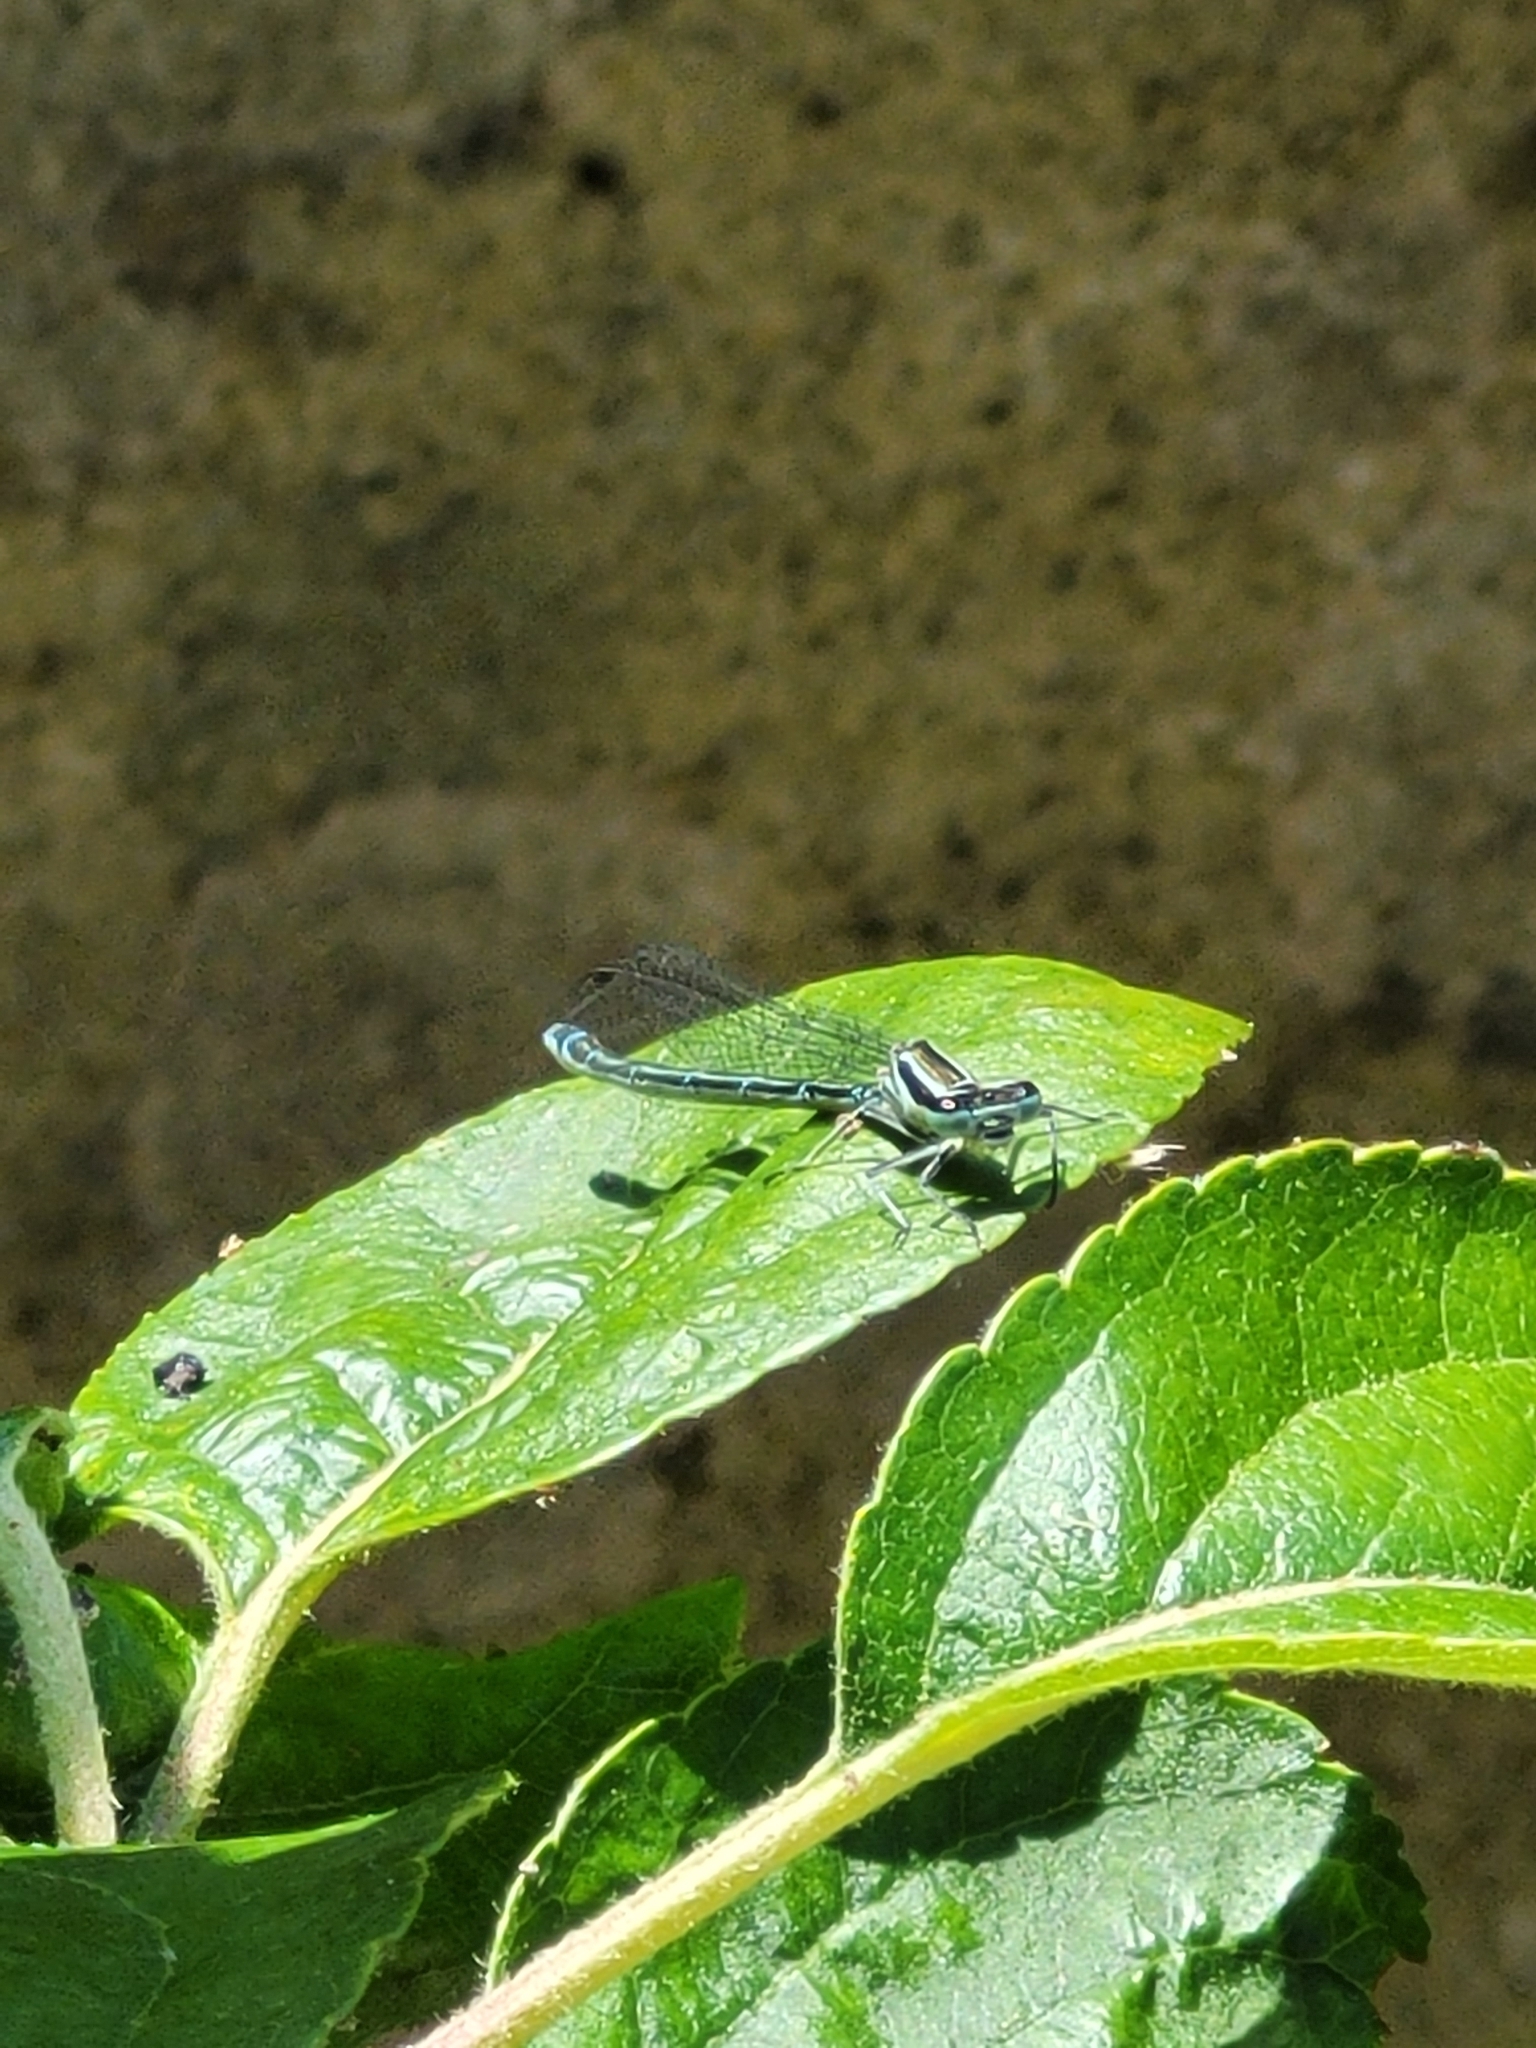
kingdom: Animalia
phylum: Arthropoda
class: Insecta
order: Odonata
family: Coenagrionidae
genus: Coenagrion
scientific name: Coenagrion puella
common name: Azure damselfly
